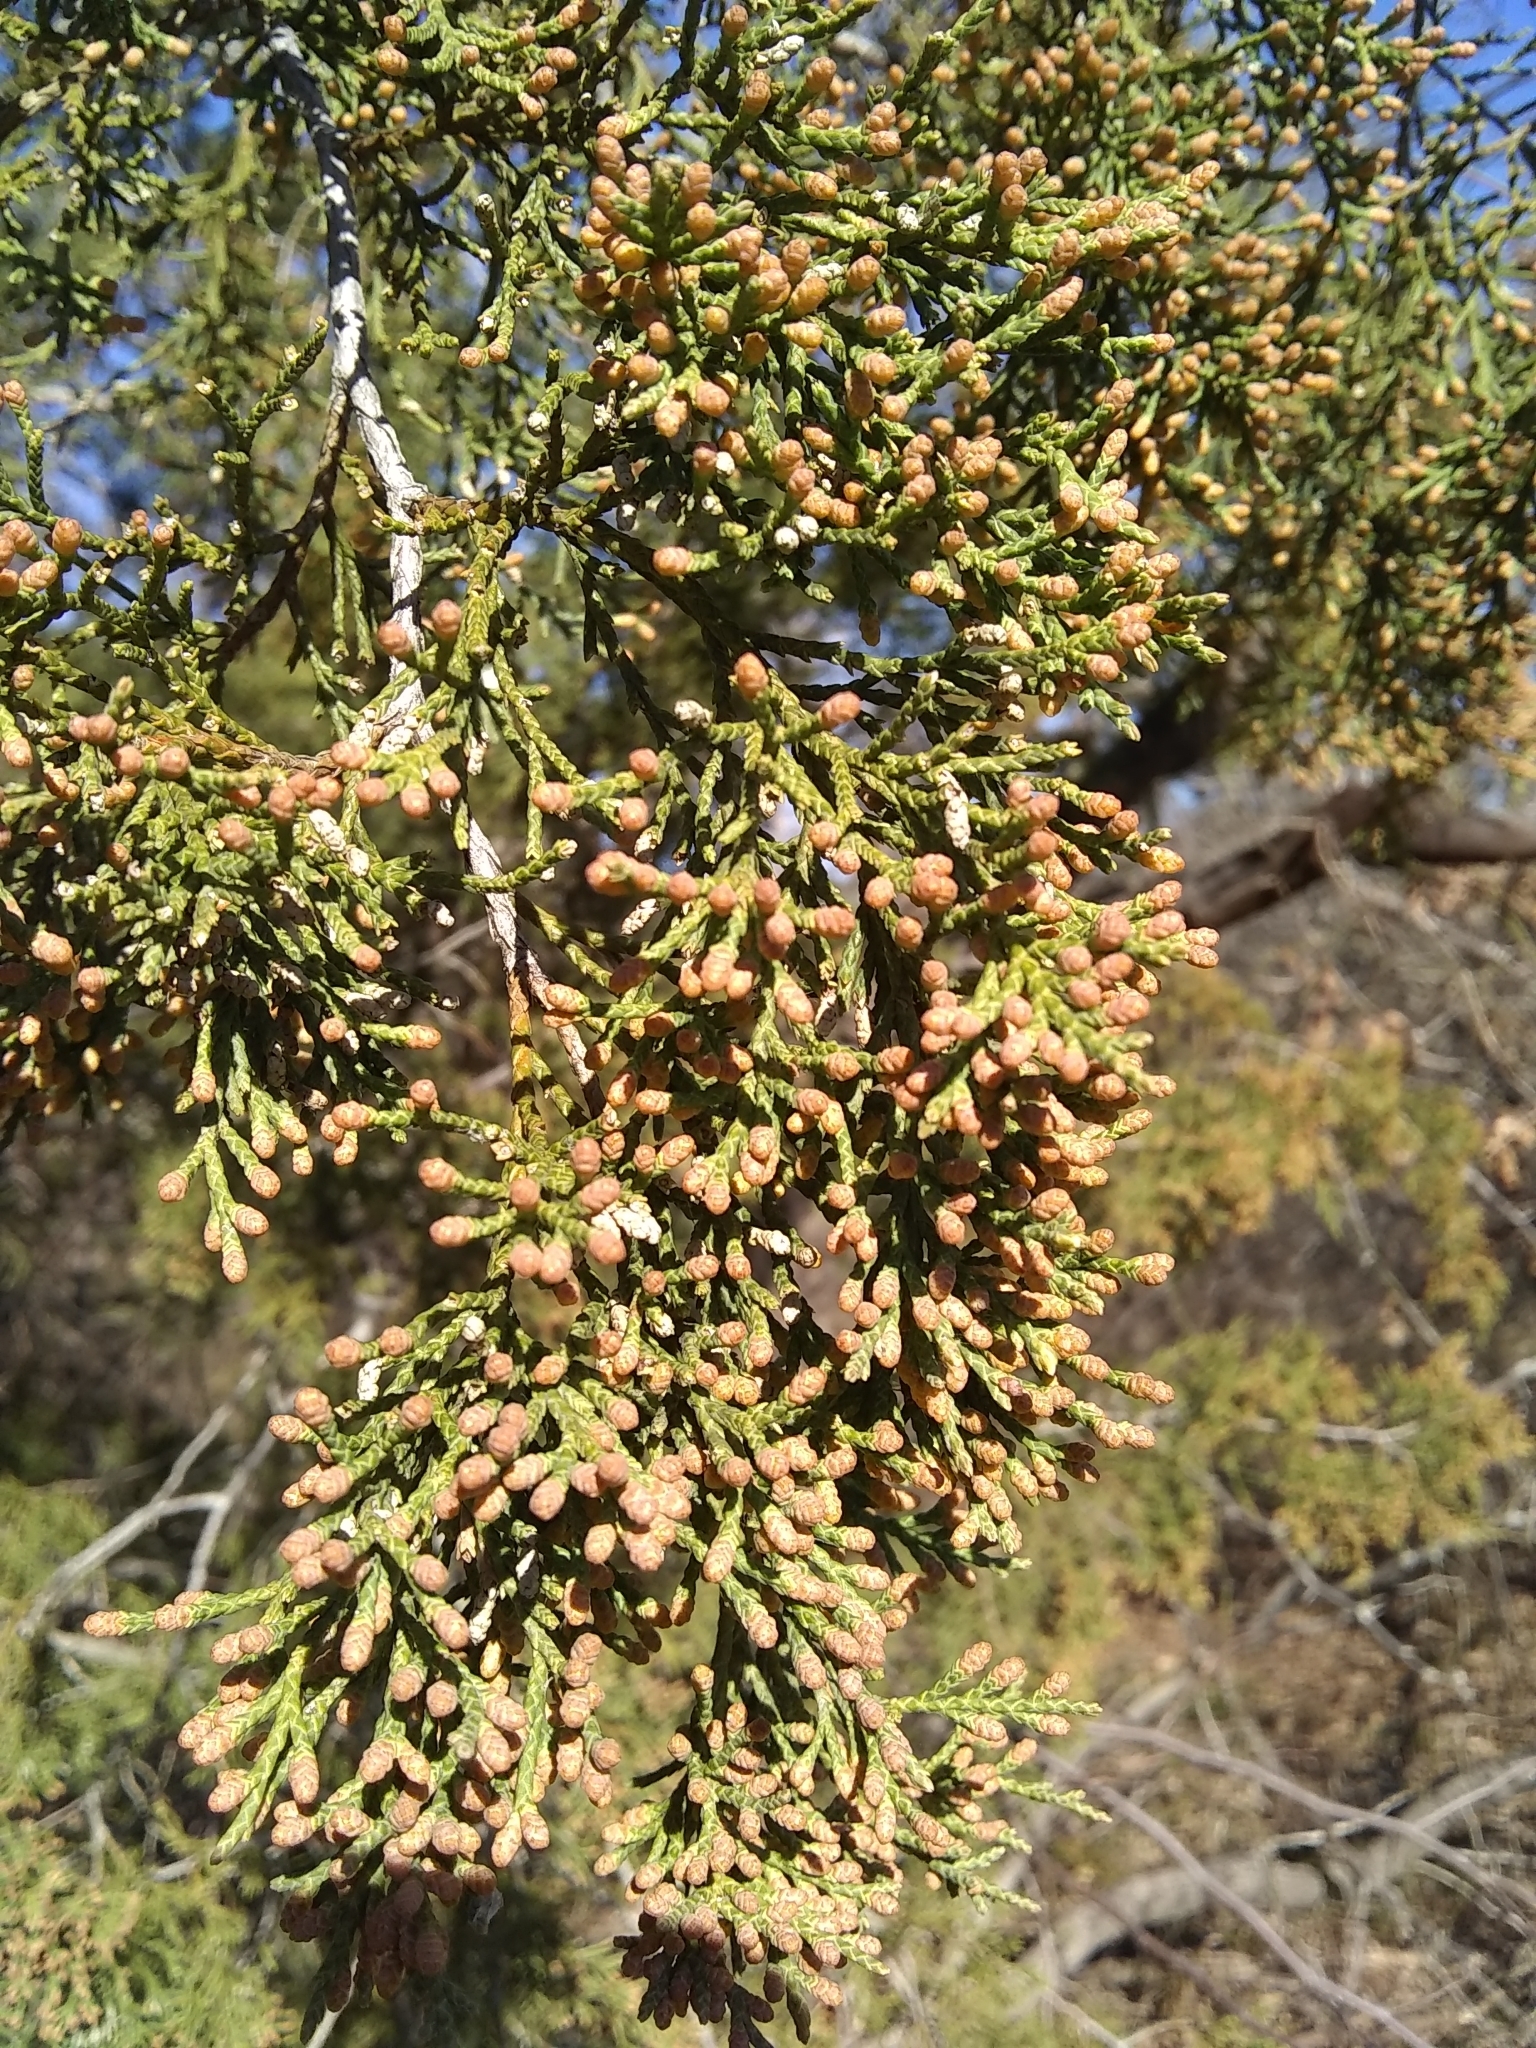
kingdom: Plantae
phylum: Tracheophyta
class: Pinopsida
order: Pinales
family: Cupressaceae
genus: Juniperus
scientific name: Juniperus virginiana
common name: Red juniper
